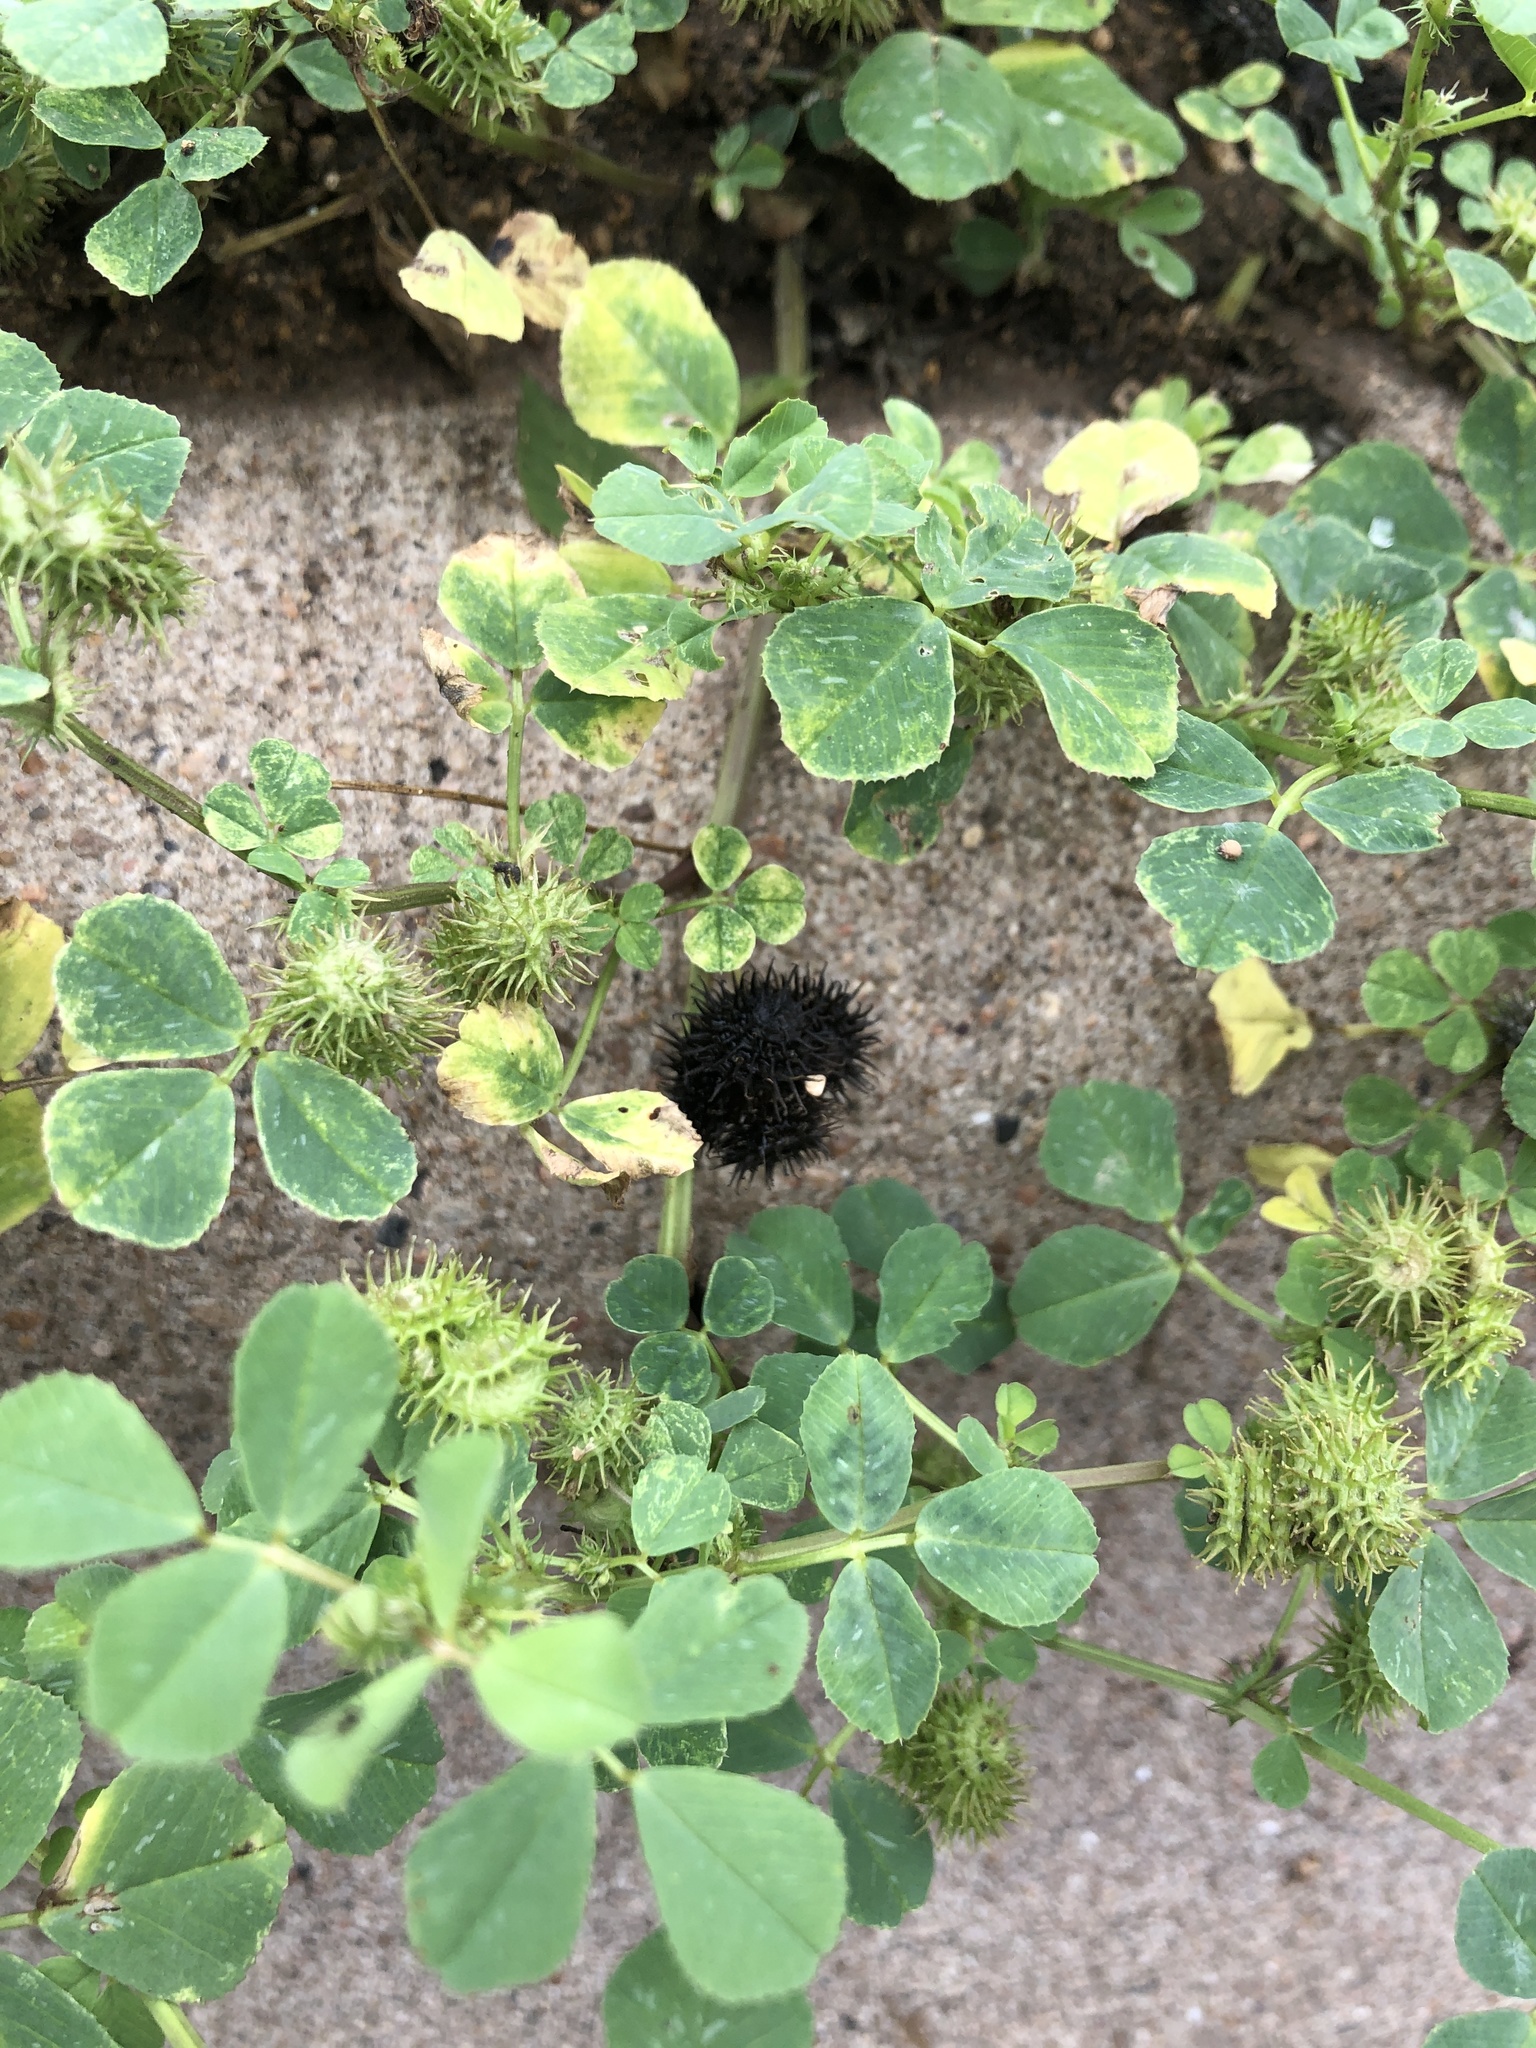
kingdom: Plantae
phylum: Tracheophyta
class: Magnoliopsida
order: Fabales
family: Fabaceae
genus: Medicago
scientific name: Medicago polymorpha
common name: Burclover
